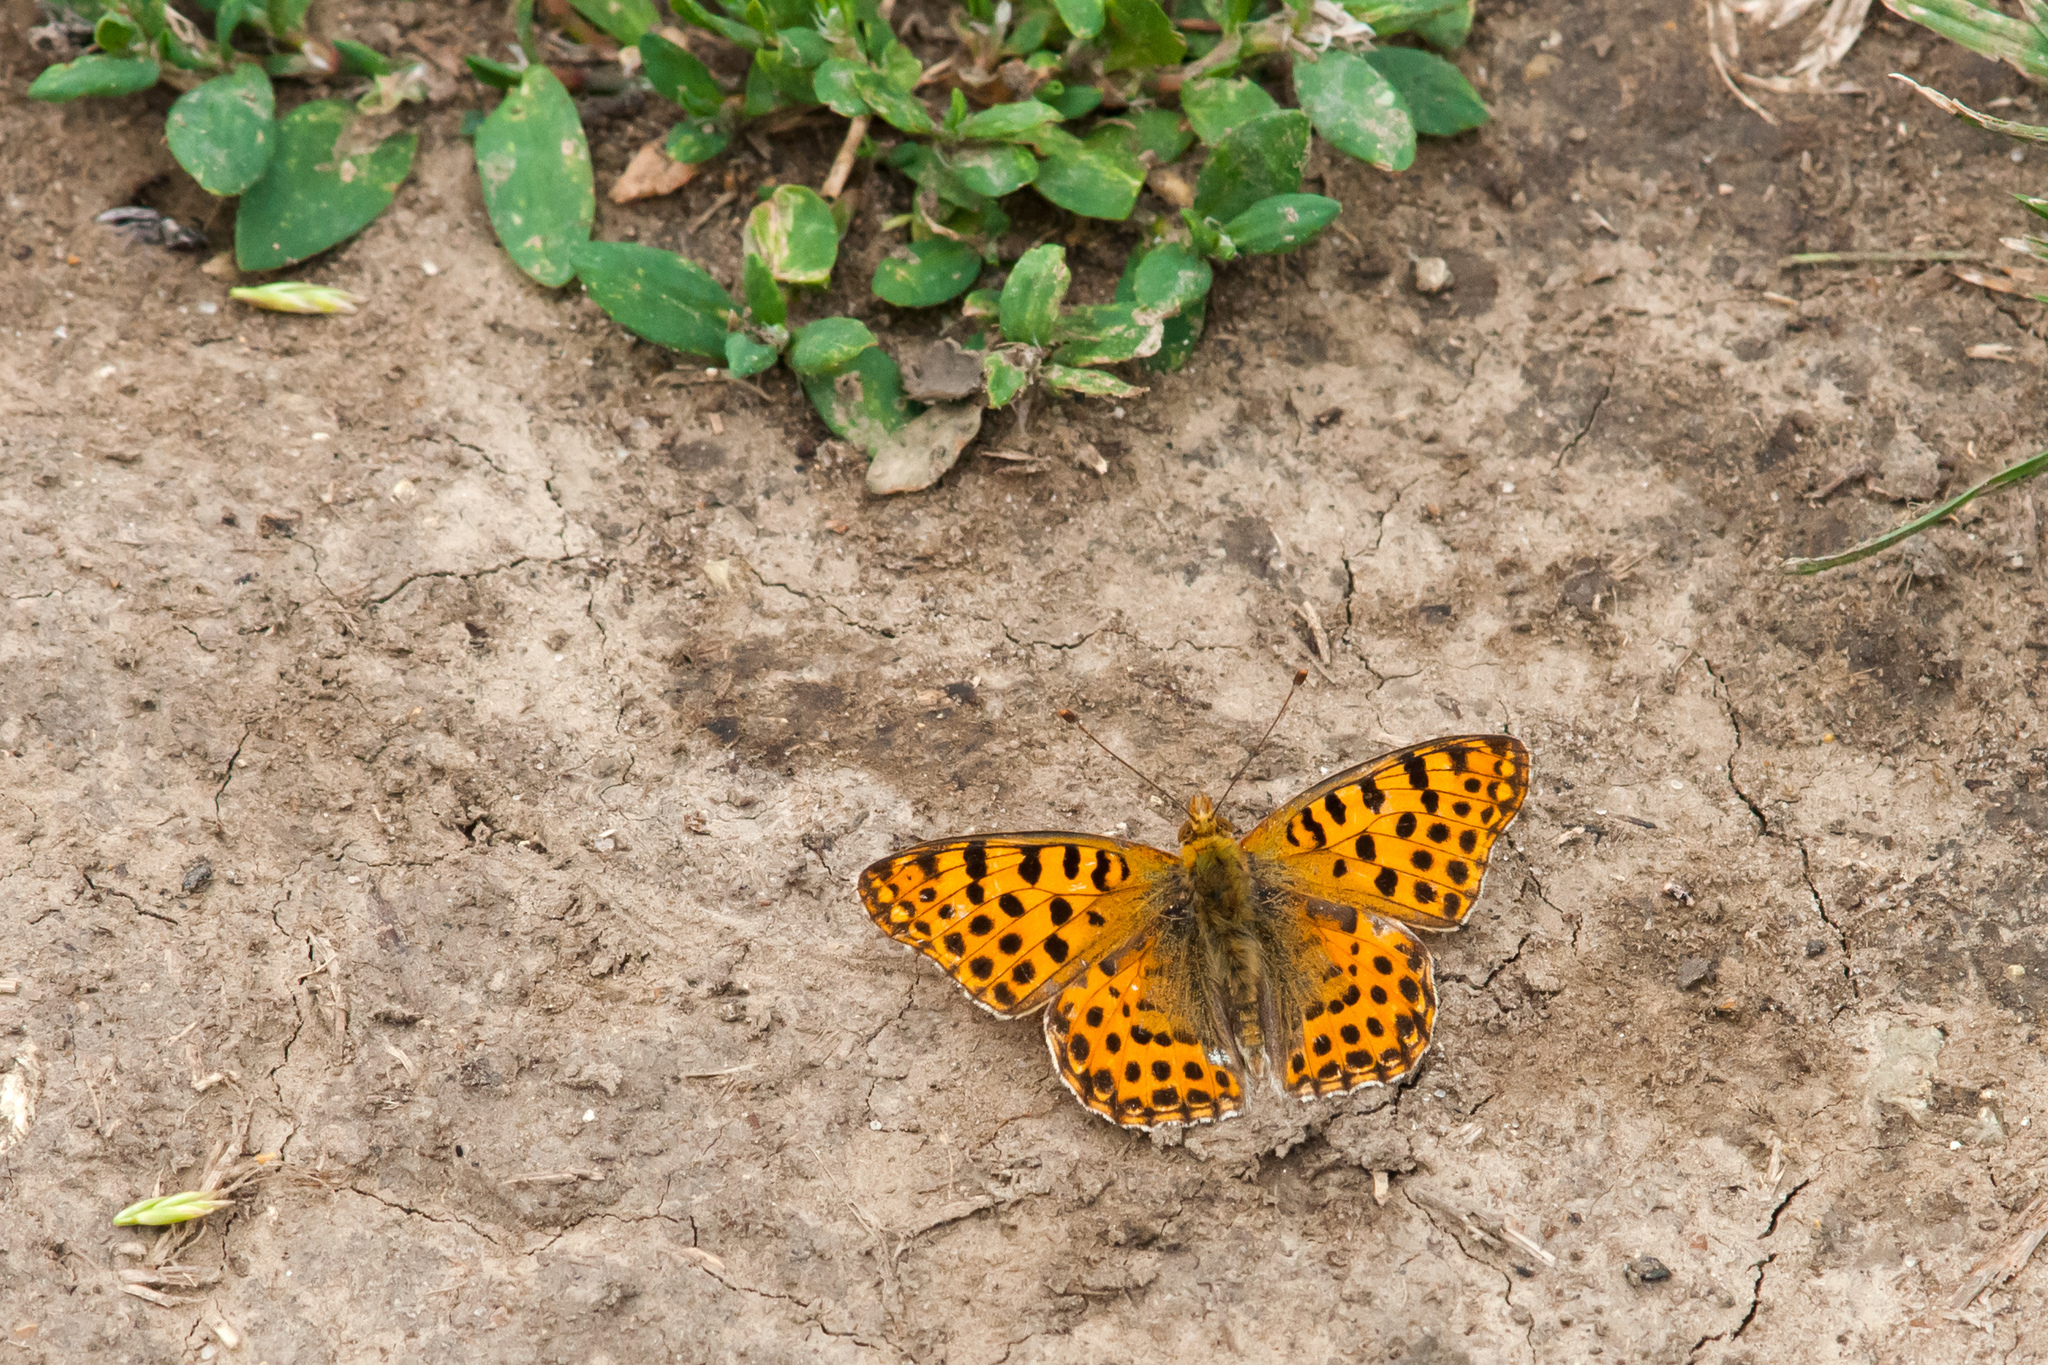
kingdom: Animalia
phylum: Arthropoda
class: Insecta
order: Lepidoptera
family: Nymphalidae
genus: Issoria
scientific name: Issoria lathonia
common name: Queen of spain fritillary
